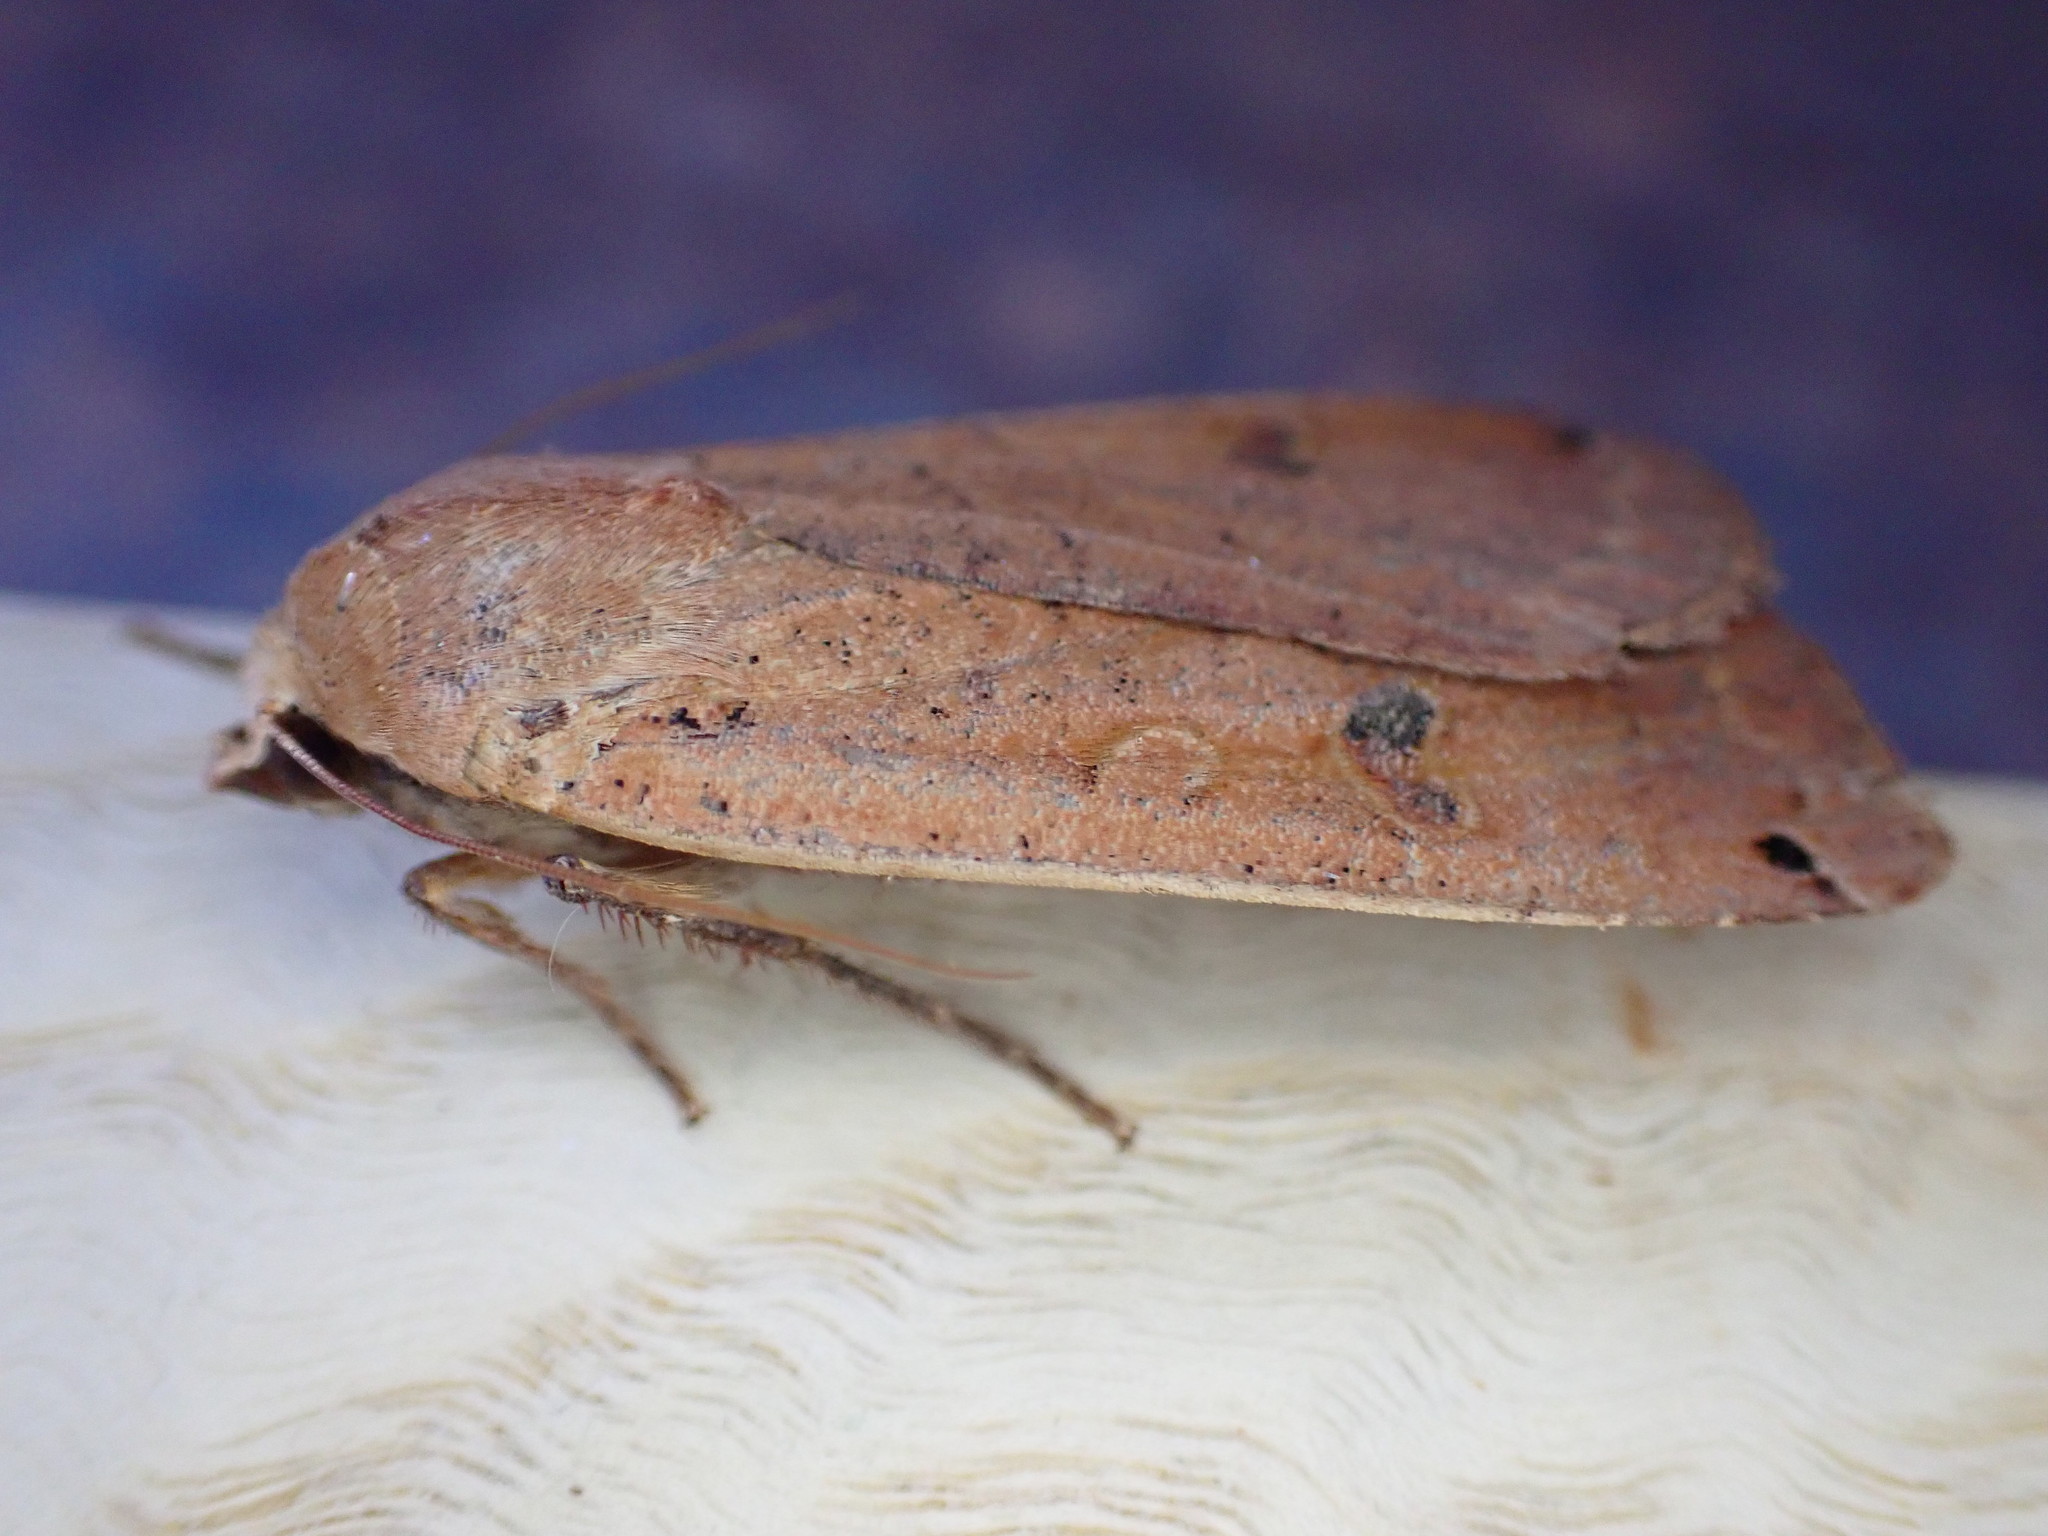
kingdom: Animalia
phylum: Arthropoda
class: Insecta
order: Lepidoptera
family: Noctuidae
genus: Noctua
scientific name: Noctua pronuba
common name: Large yellow underwing
